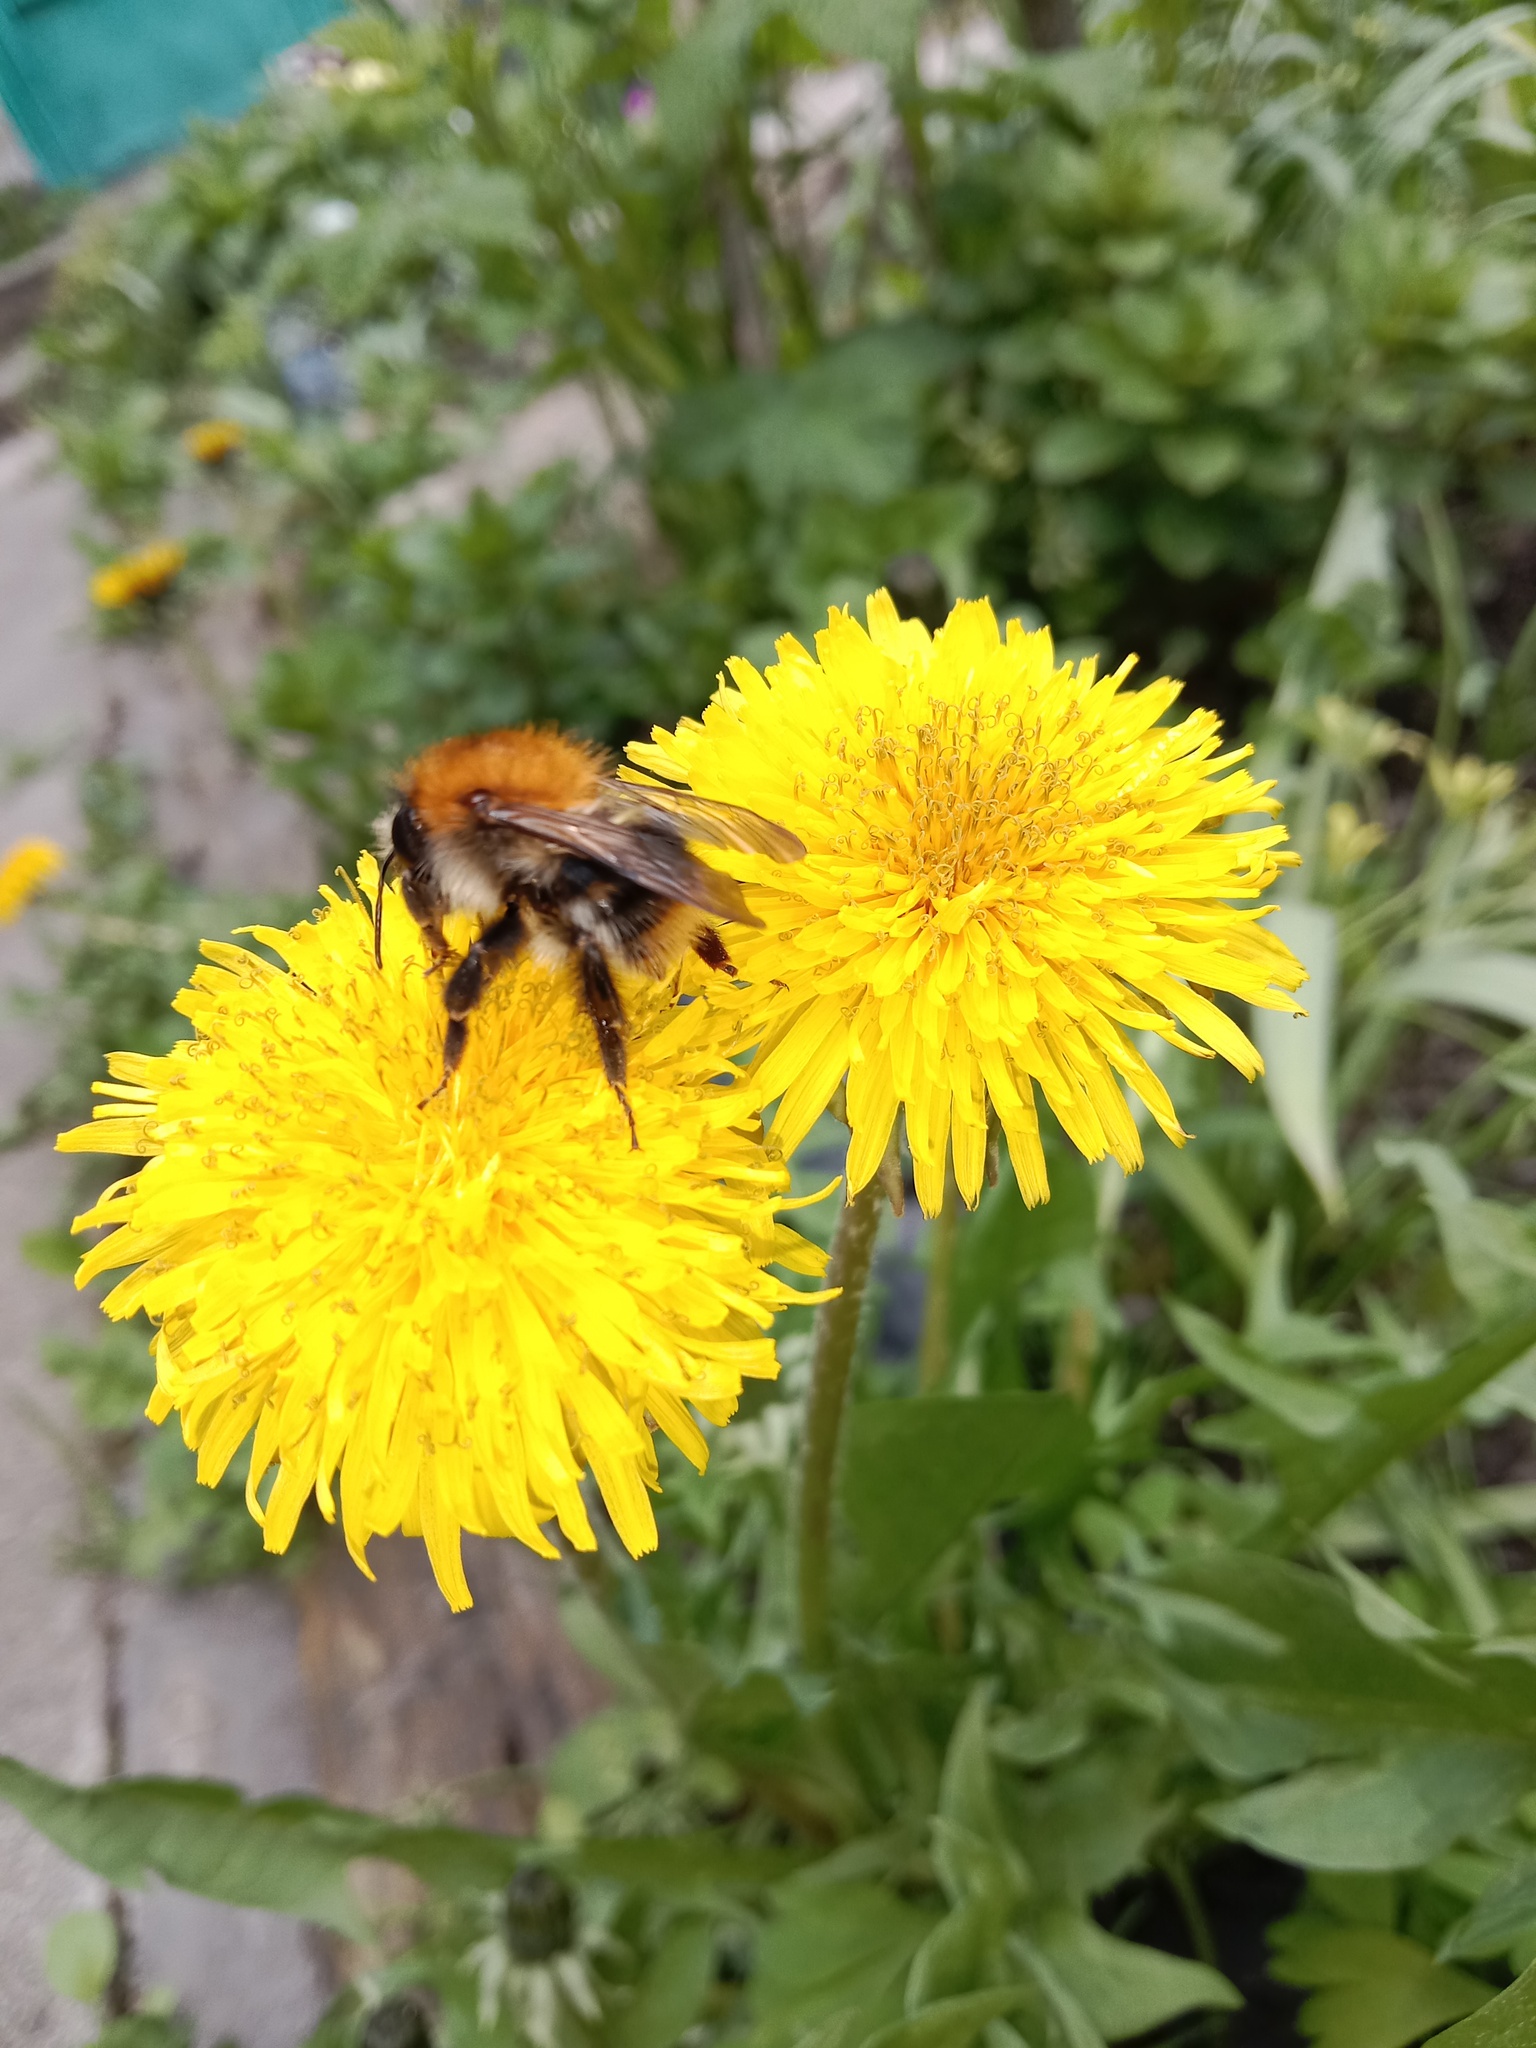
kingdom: Animalia
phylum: Arthropoda
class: Insecta
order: Hymenoptera
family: Apidae
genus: Bombus
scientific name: Bombus pascuorum
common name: Common carder bee
